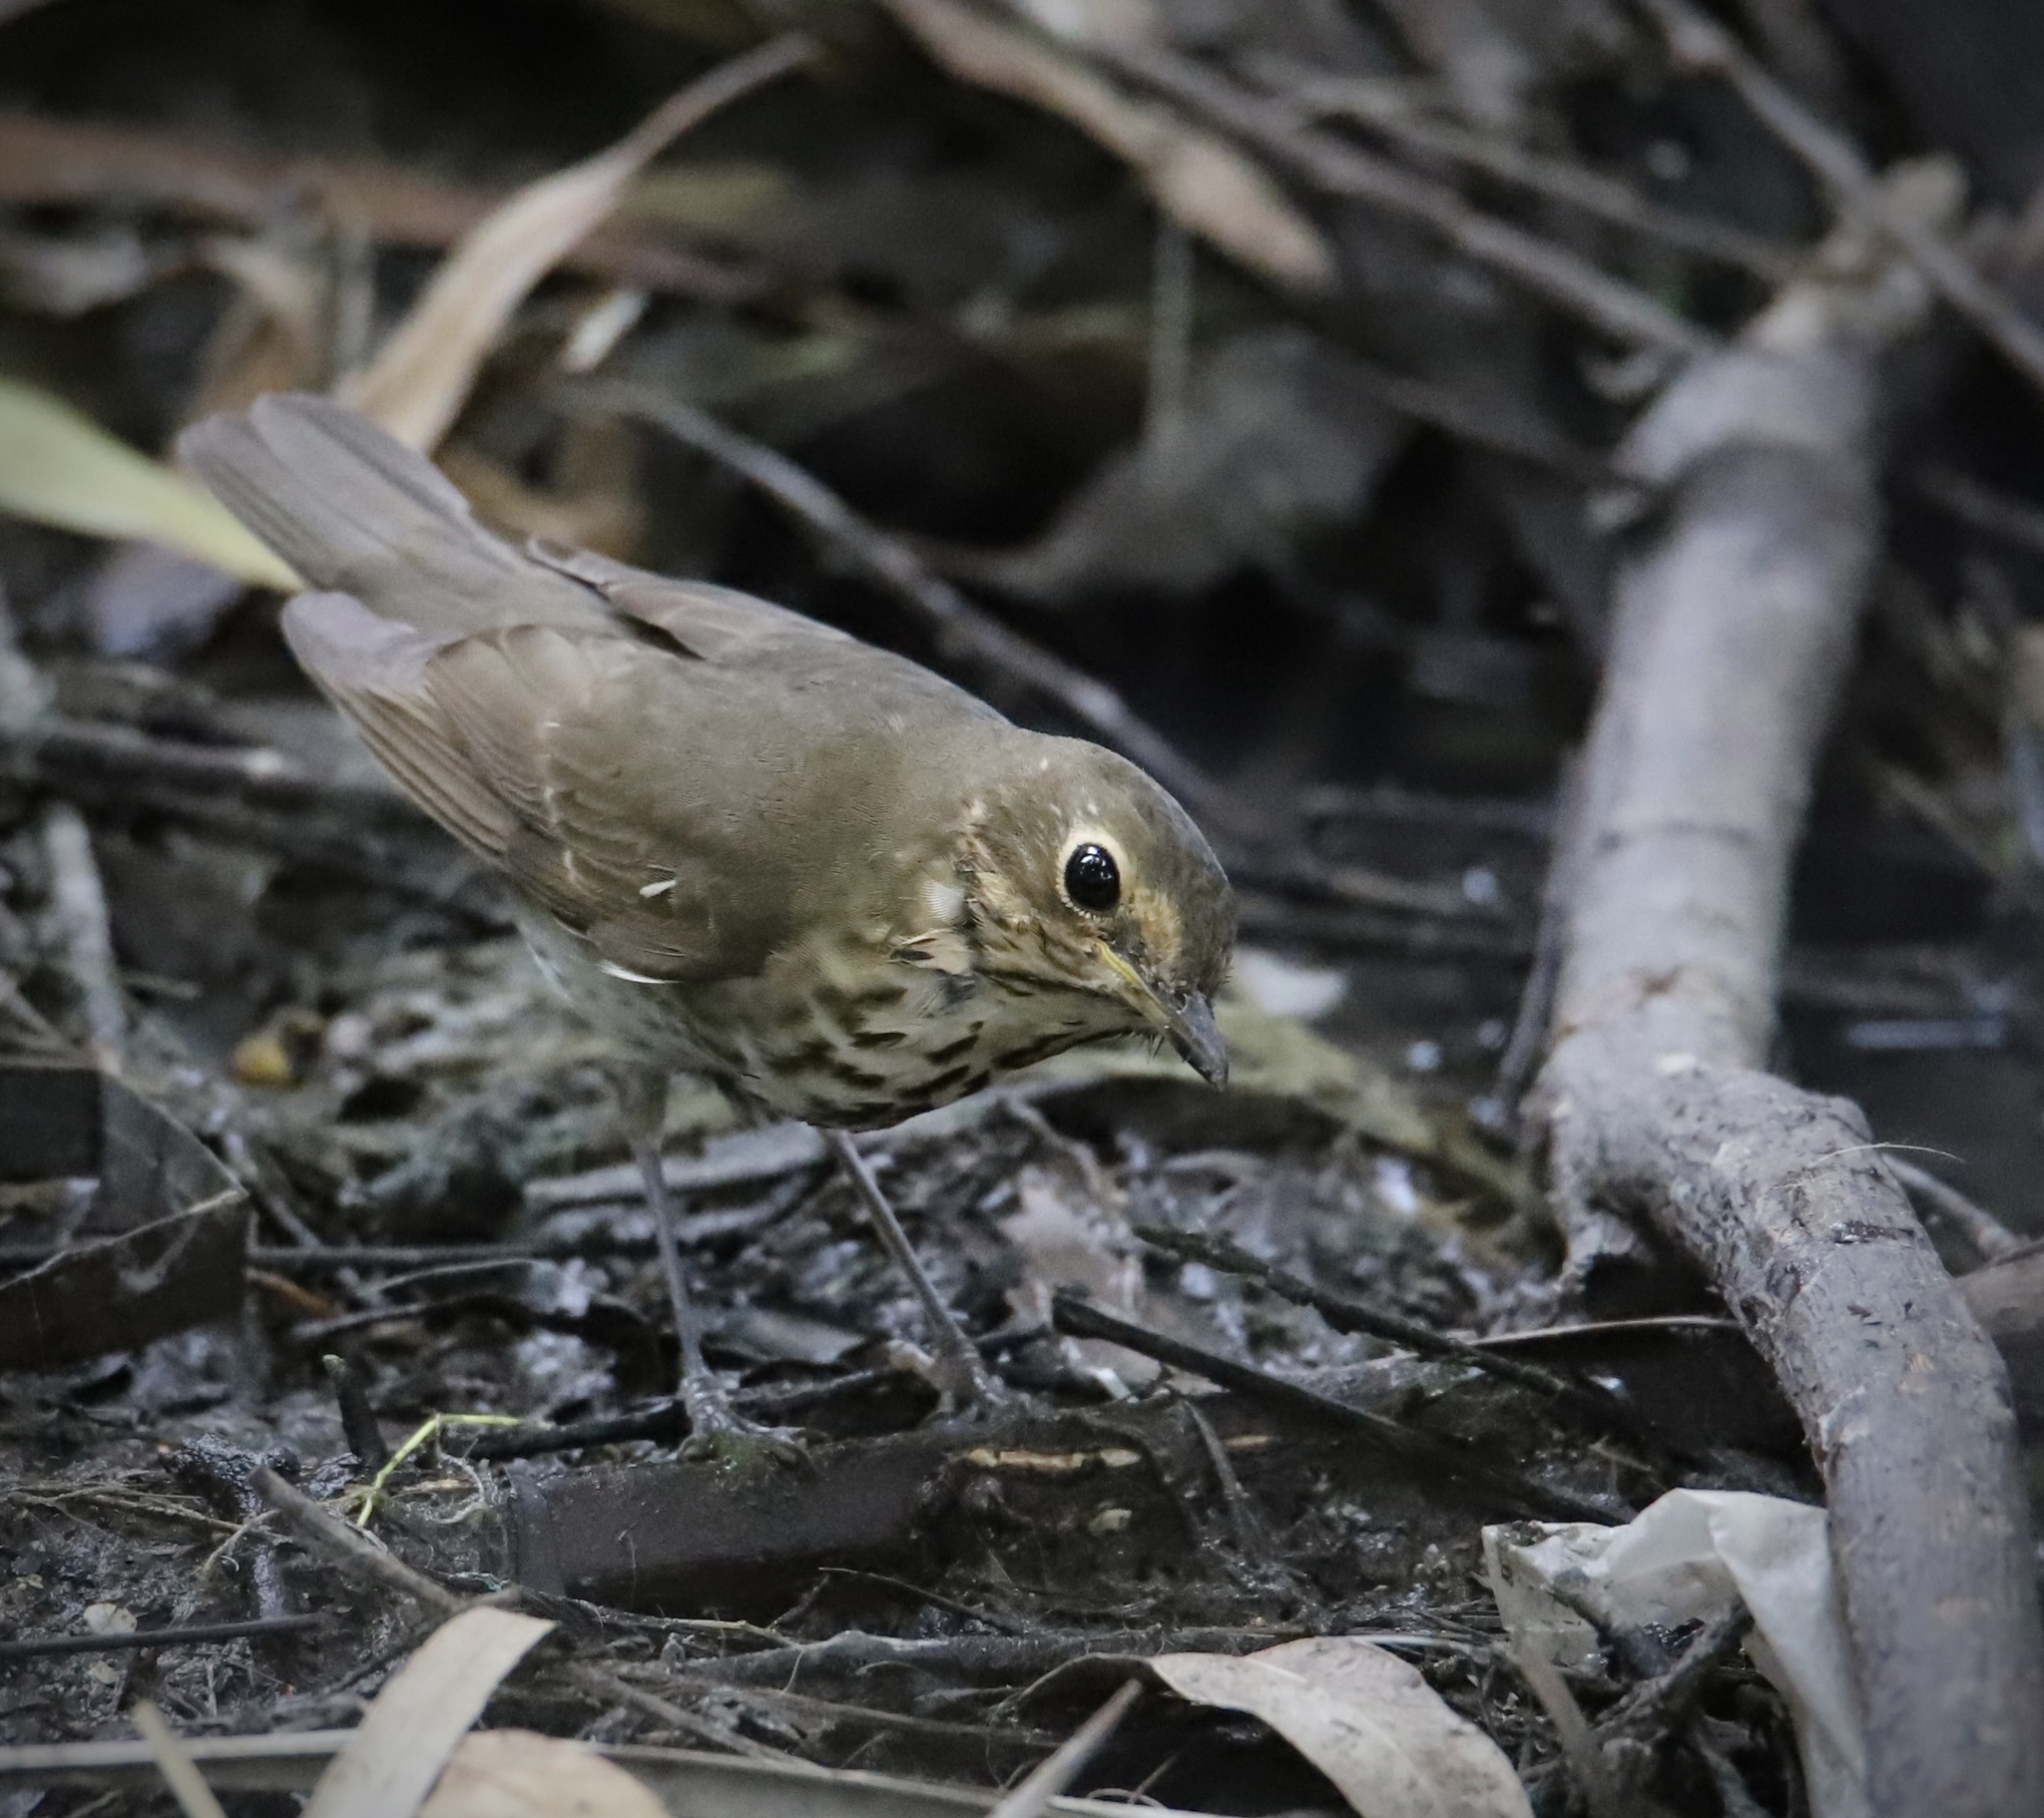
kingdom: Animalia
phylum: Chordata
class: Aves
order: Passeriformes
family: Turdidae
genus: Catharus
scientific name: Catharus ustulatus
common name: Swainson's thrush
